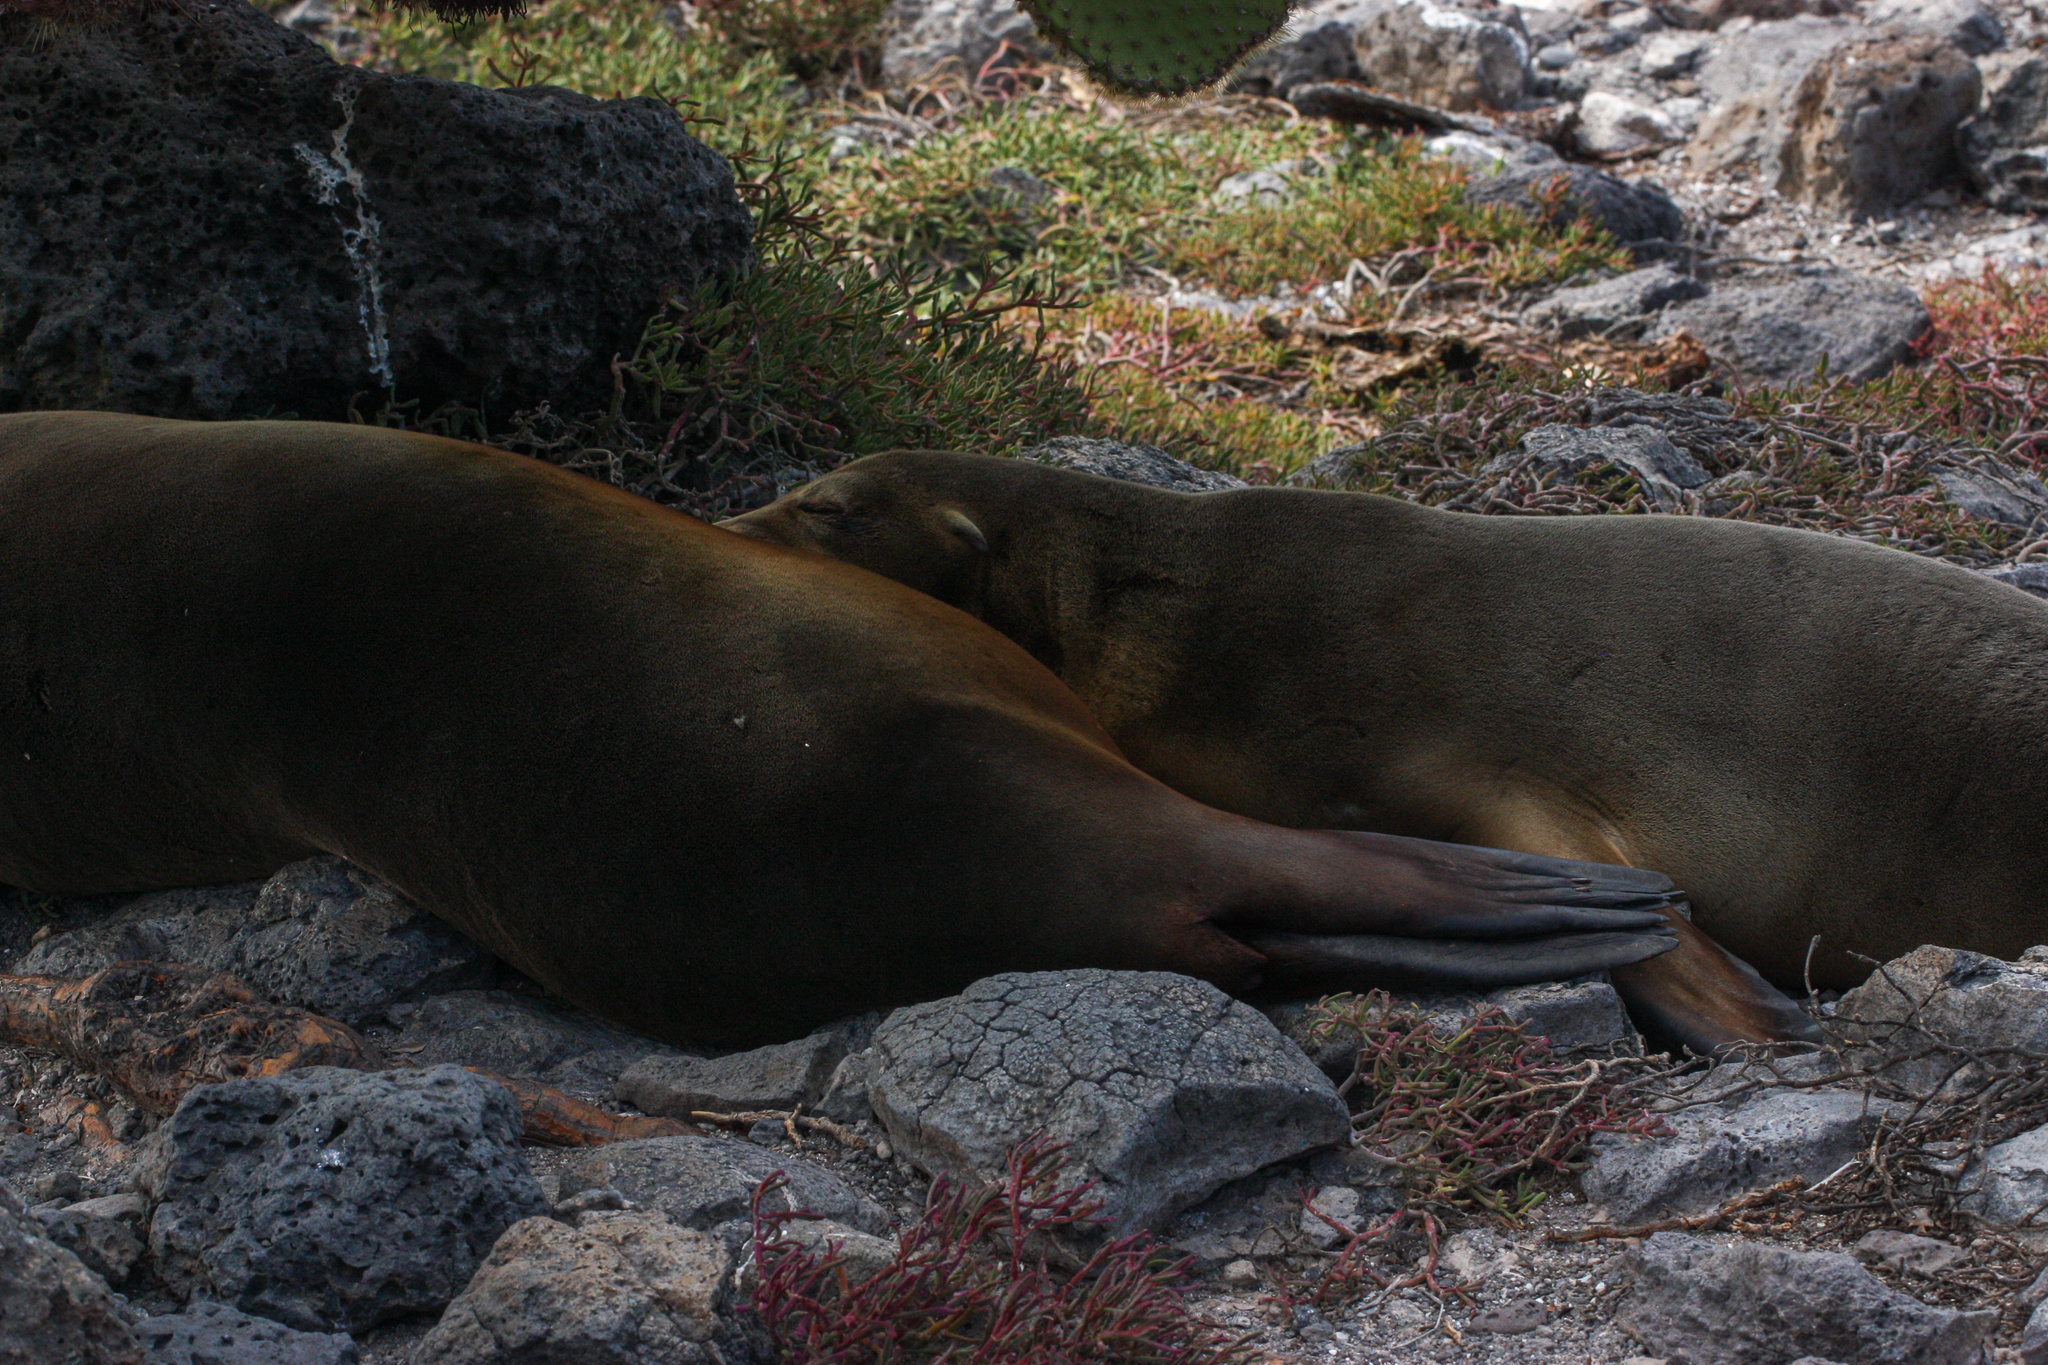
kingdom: Animalia
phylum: Chordata
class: Mammalia
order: Carnivora
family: Otariidae
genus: Zalophus
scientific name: Zalophus wollebaeki
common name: Galapagos sea lion
